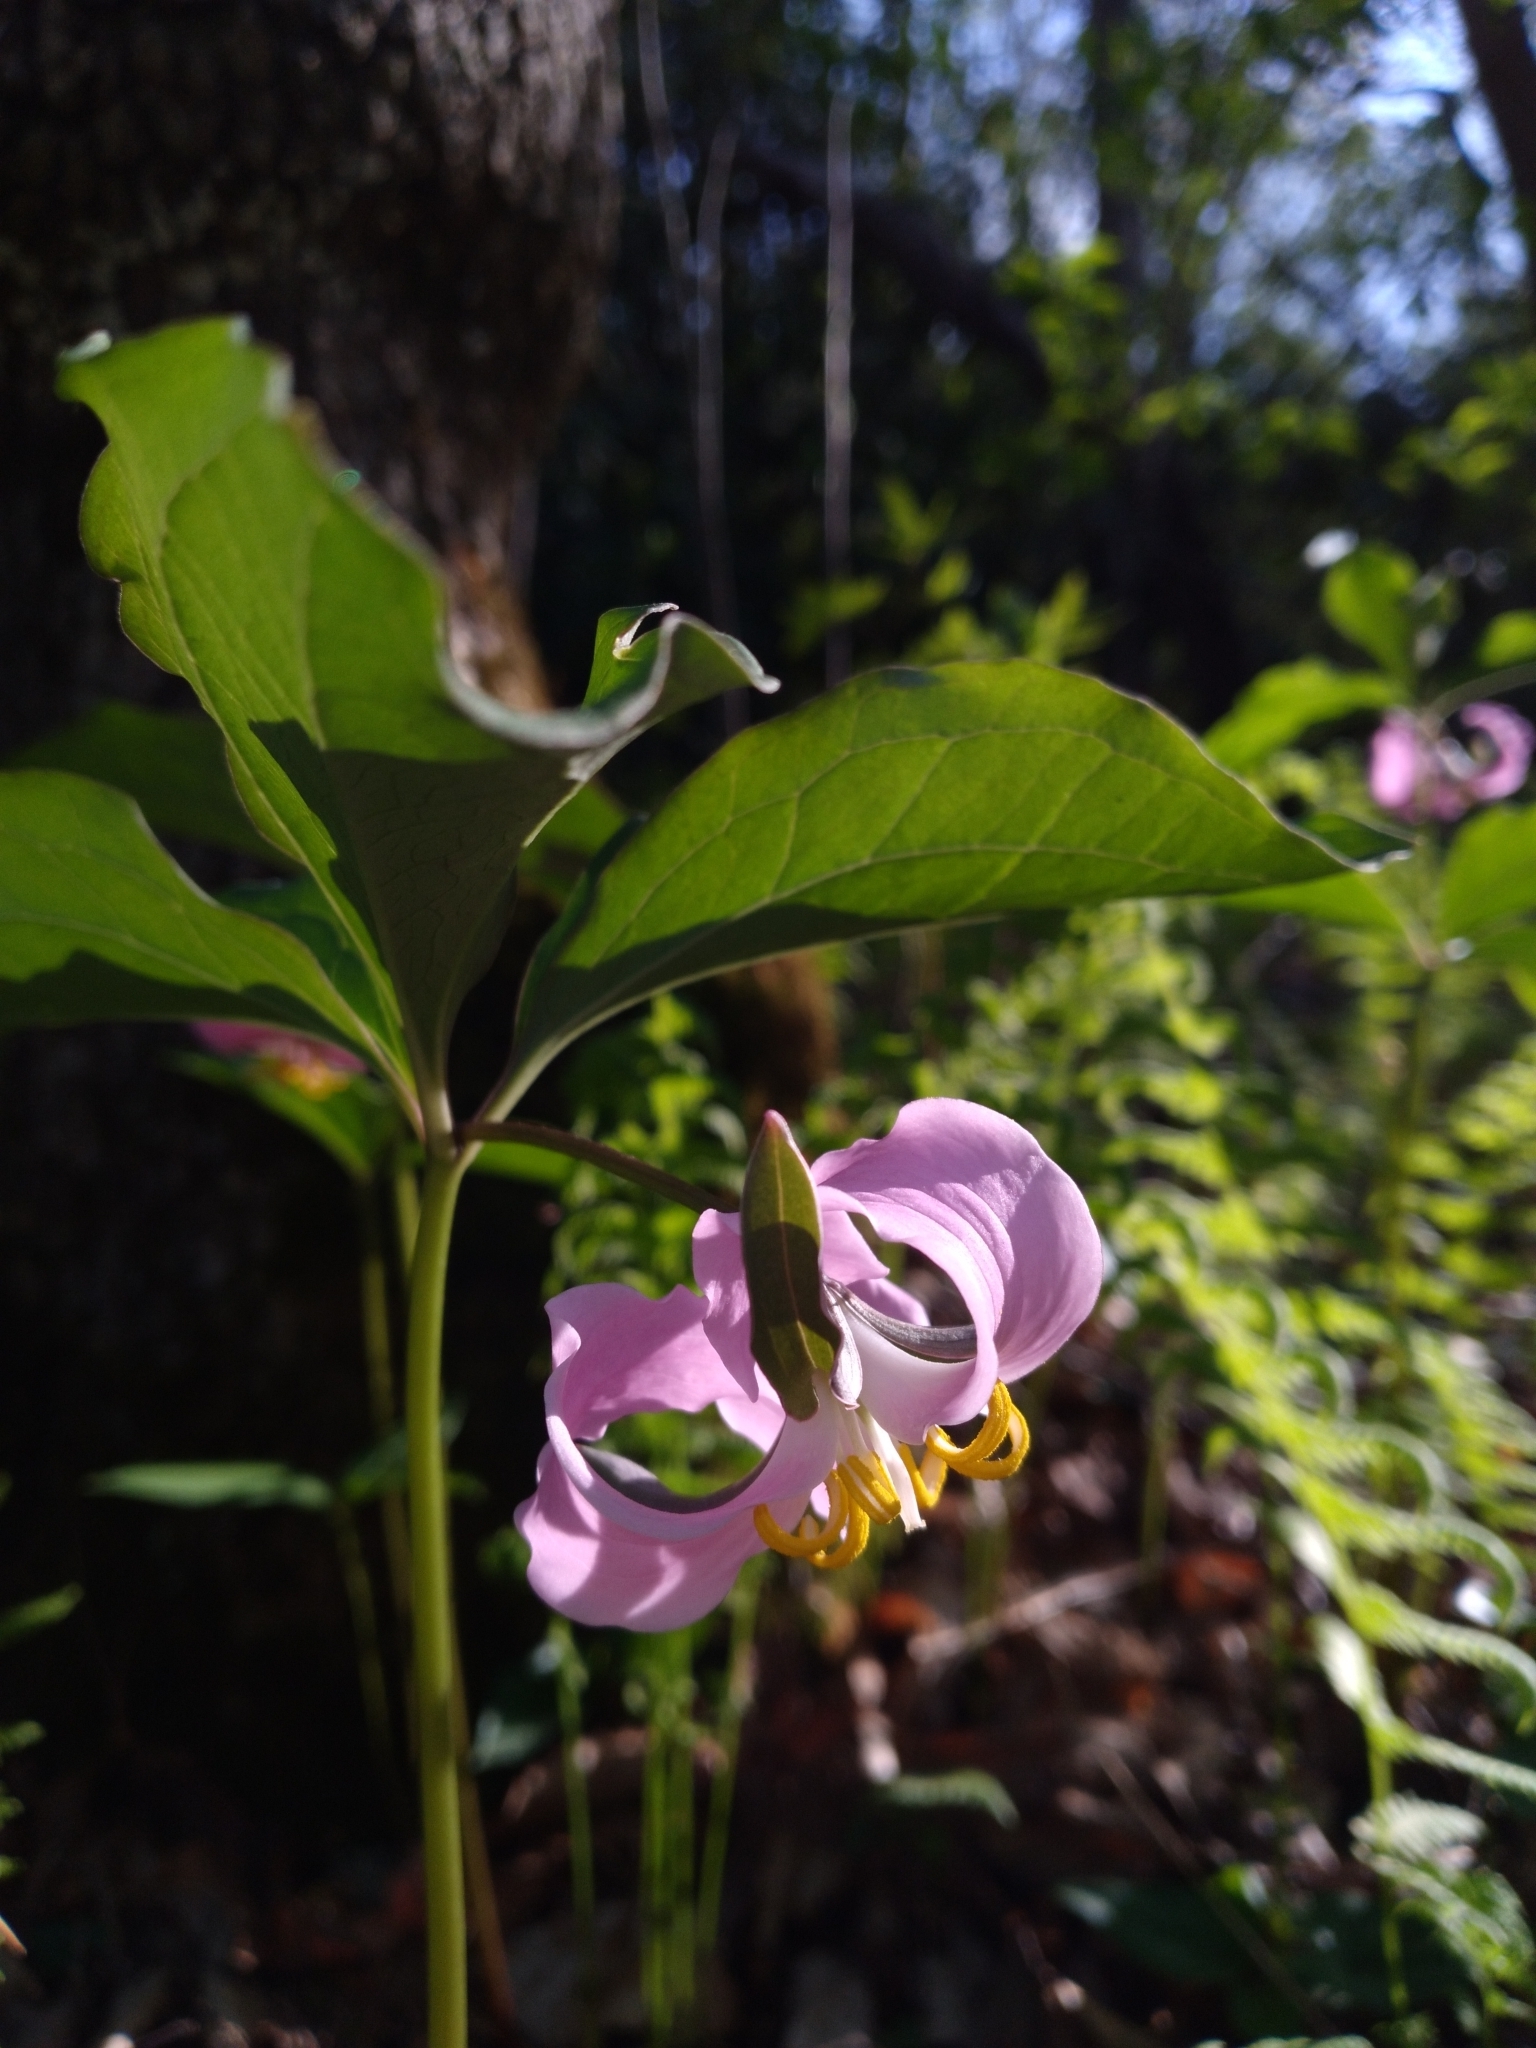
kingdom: Plantae
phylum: Tracheophyta
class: Liliopsida
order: Liliales
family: Melanthiaceae
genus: Trillium
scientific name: Trillium catesbaei
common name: Bashful trillium
